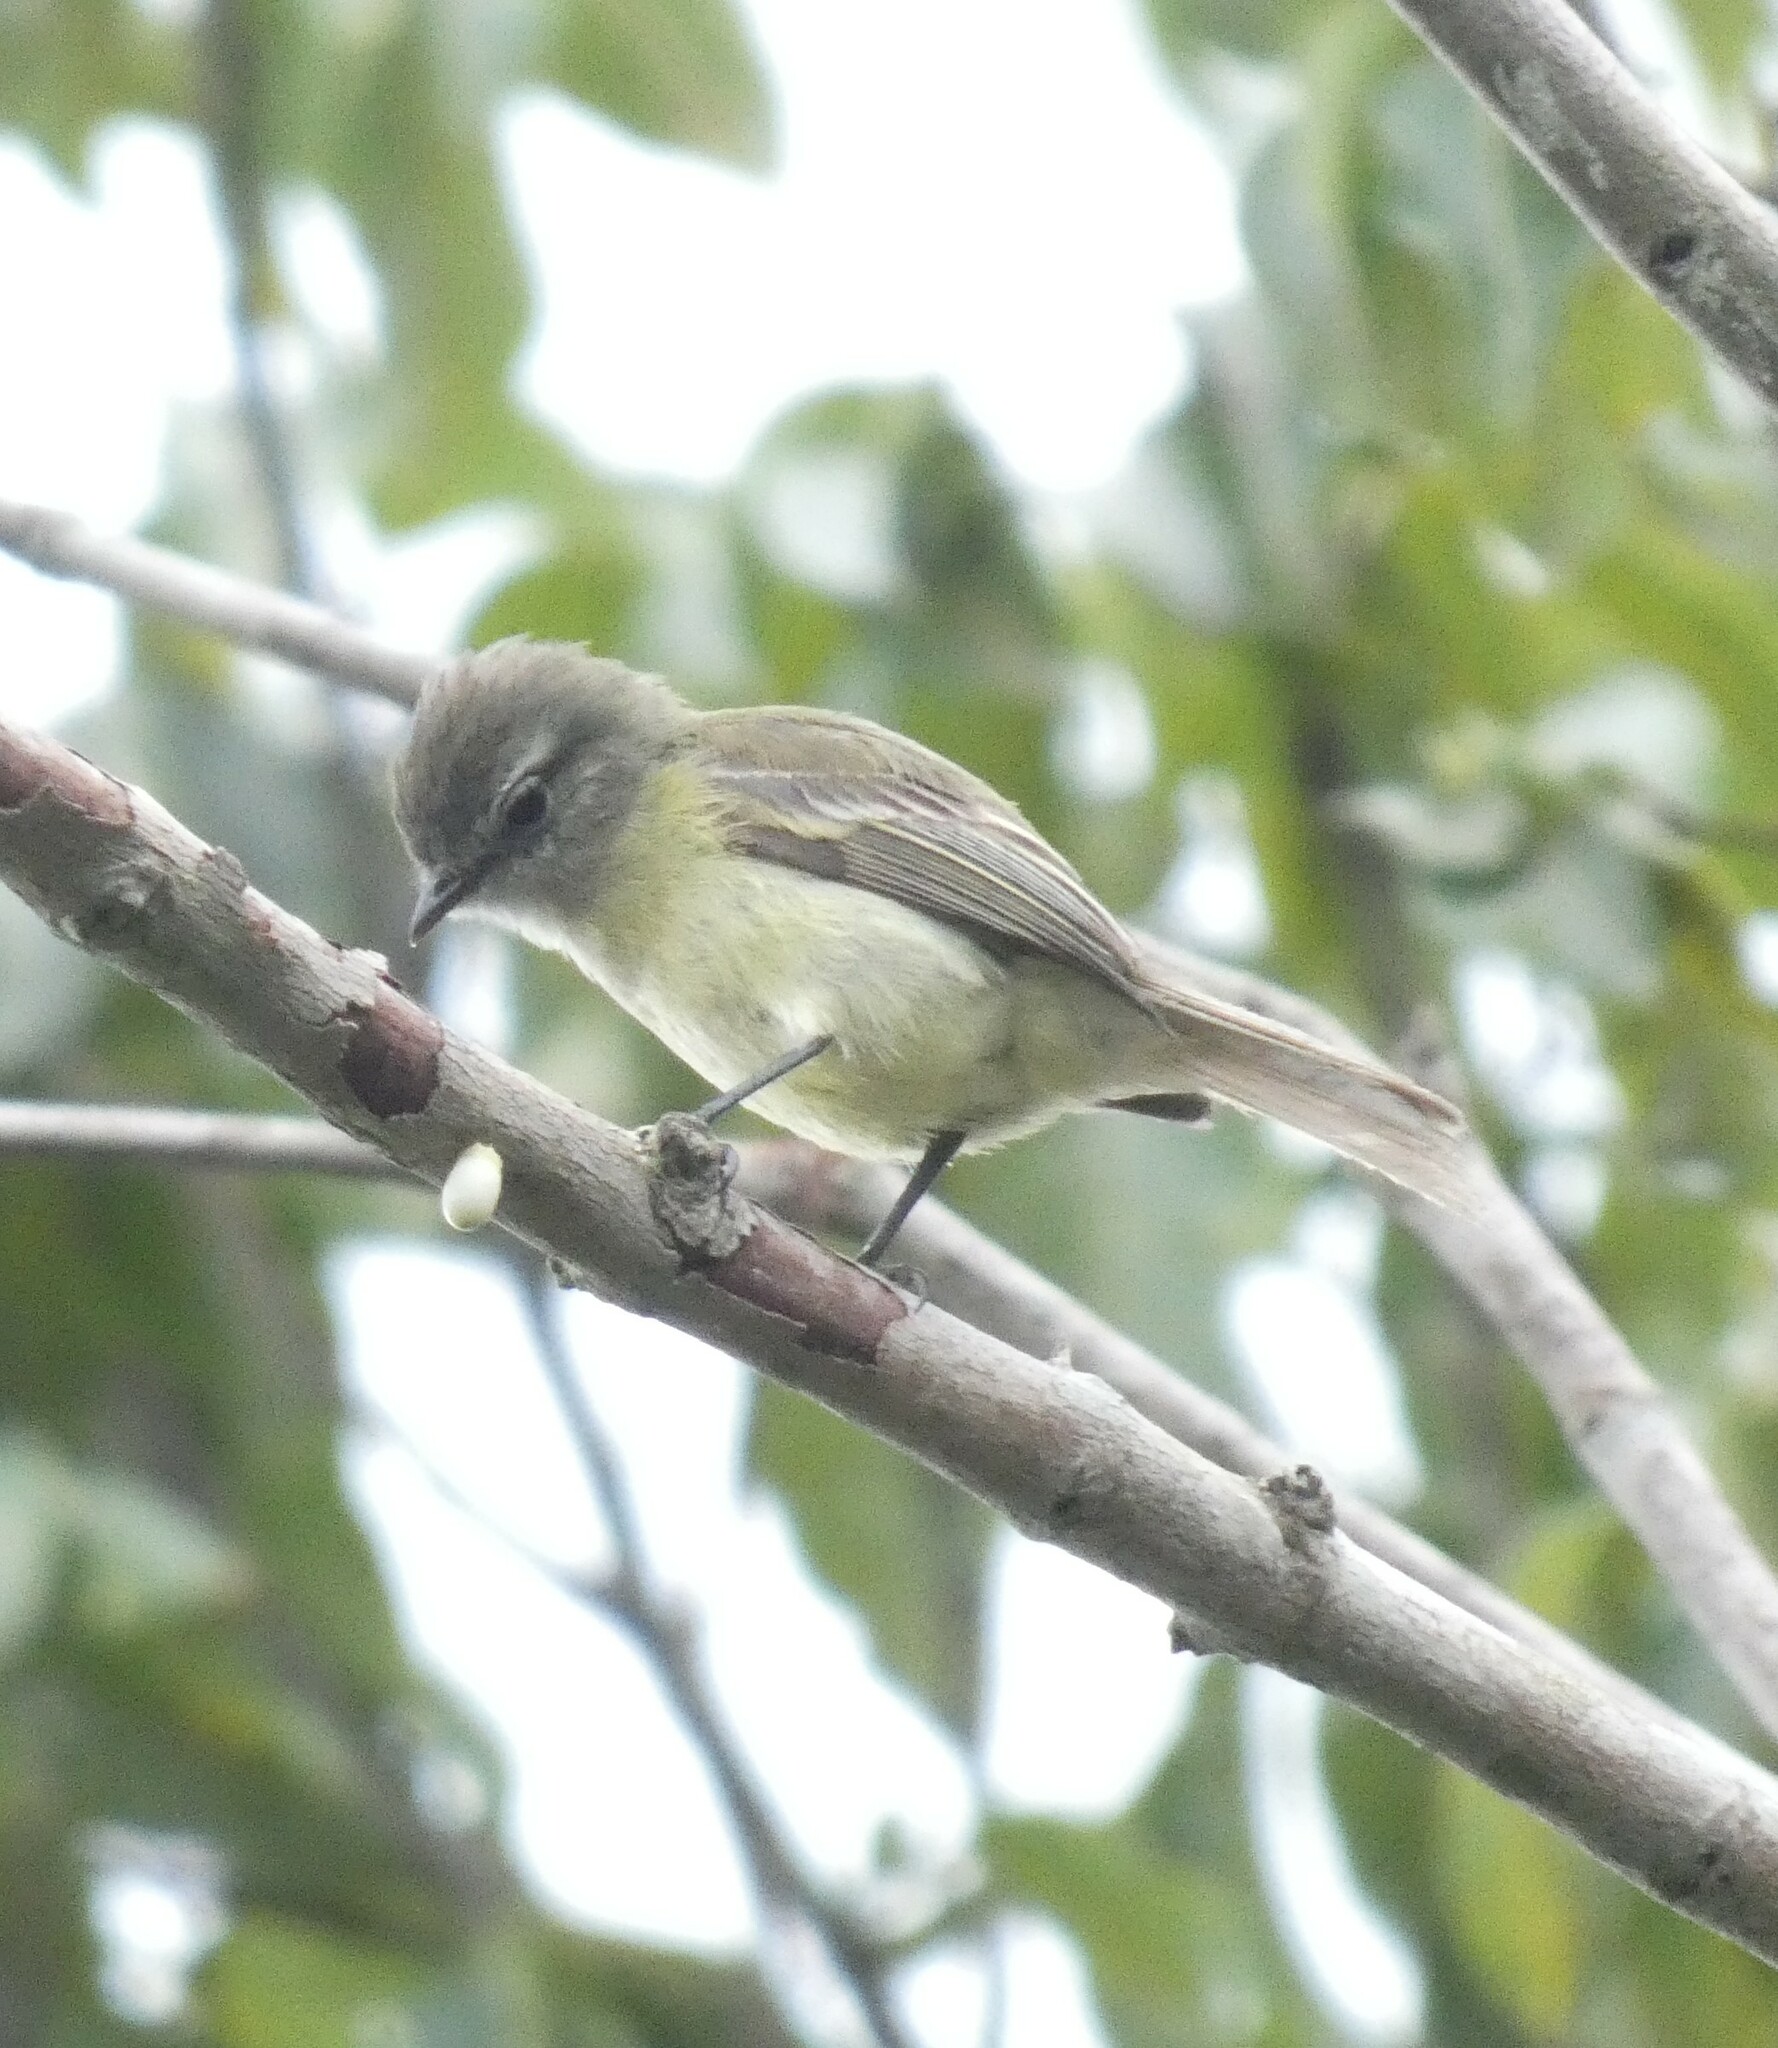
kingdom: Animalia
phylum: Chordata
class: Aves
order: Passeriformes
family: Tyrannidae
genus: Phyllomyias
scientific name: Phyllomyias fasciatus
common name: Planalto tyrannulet
